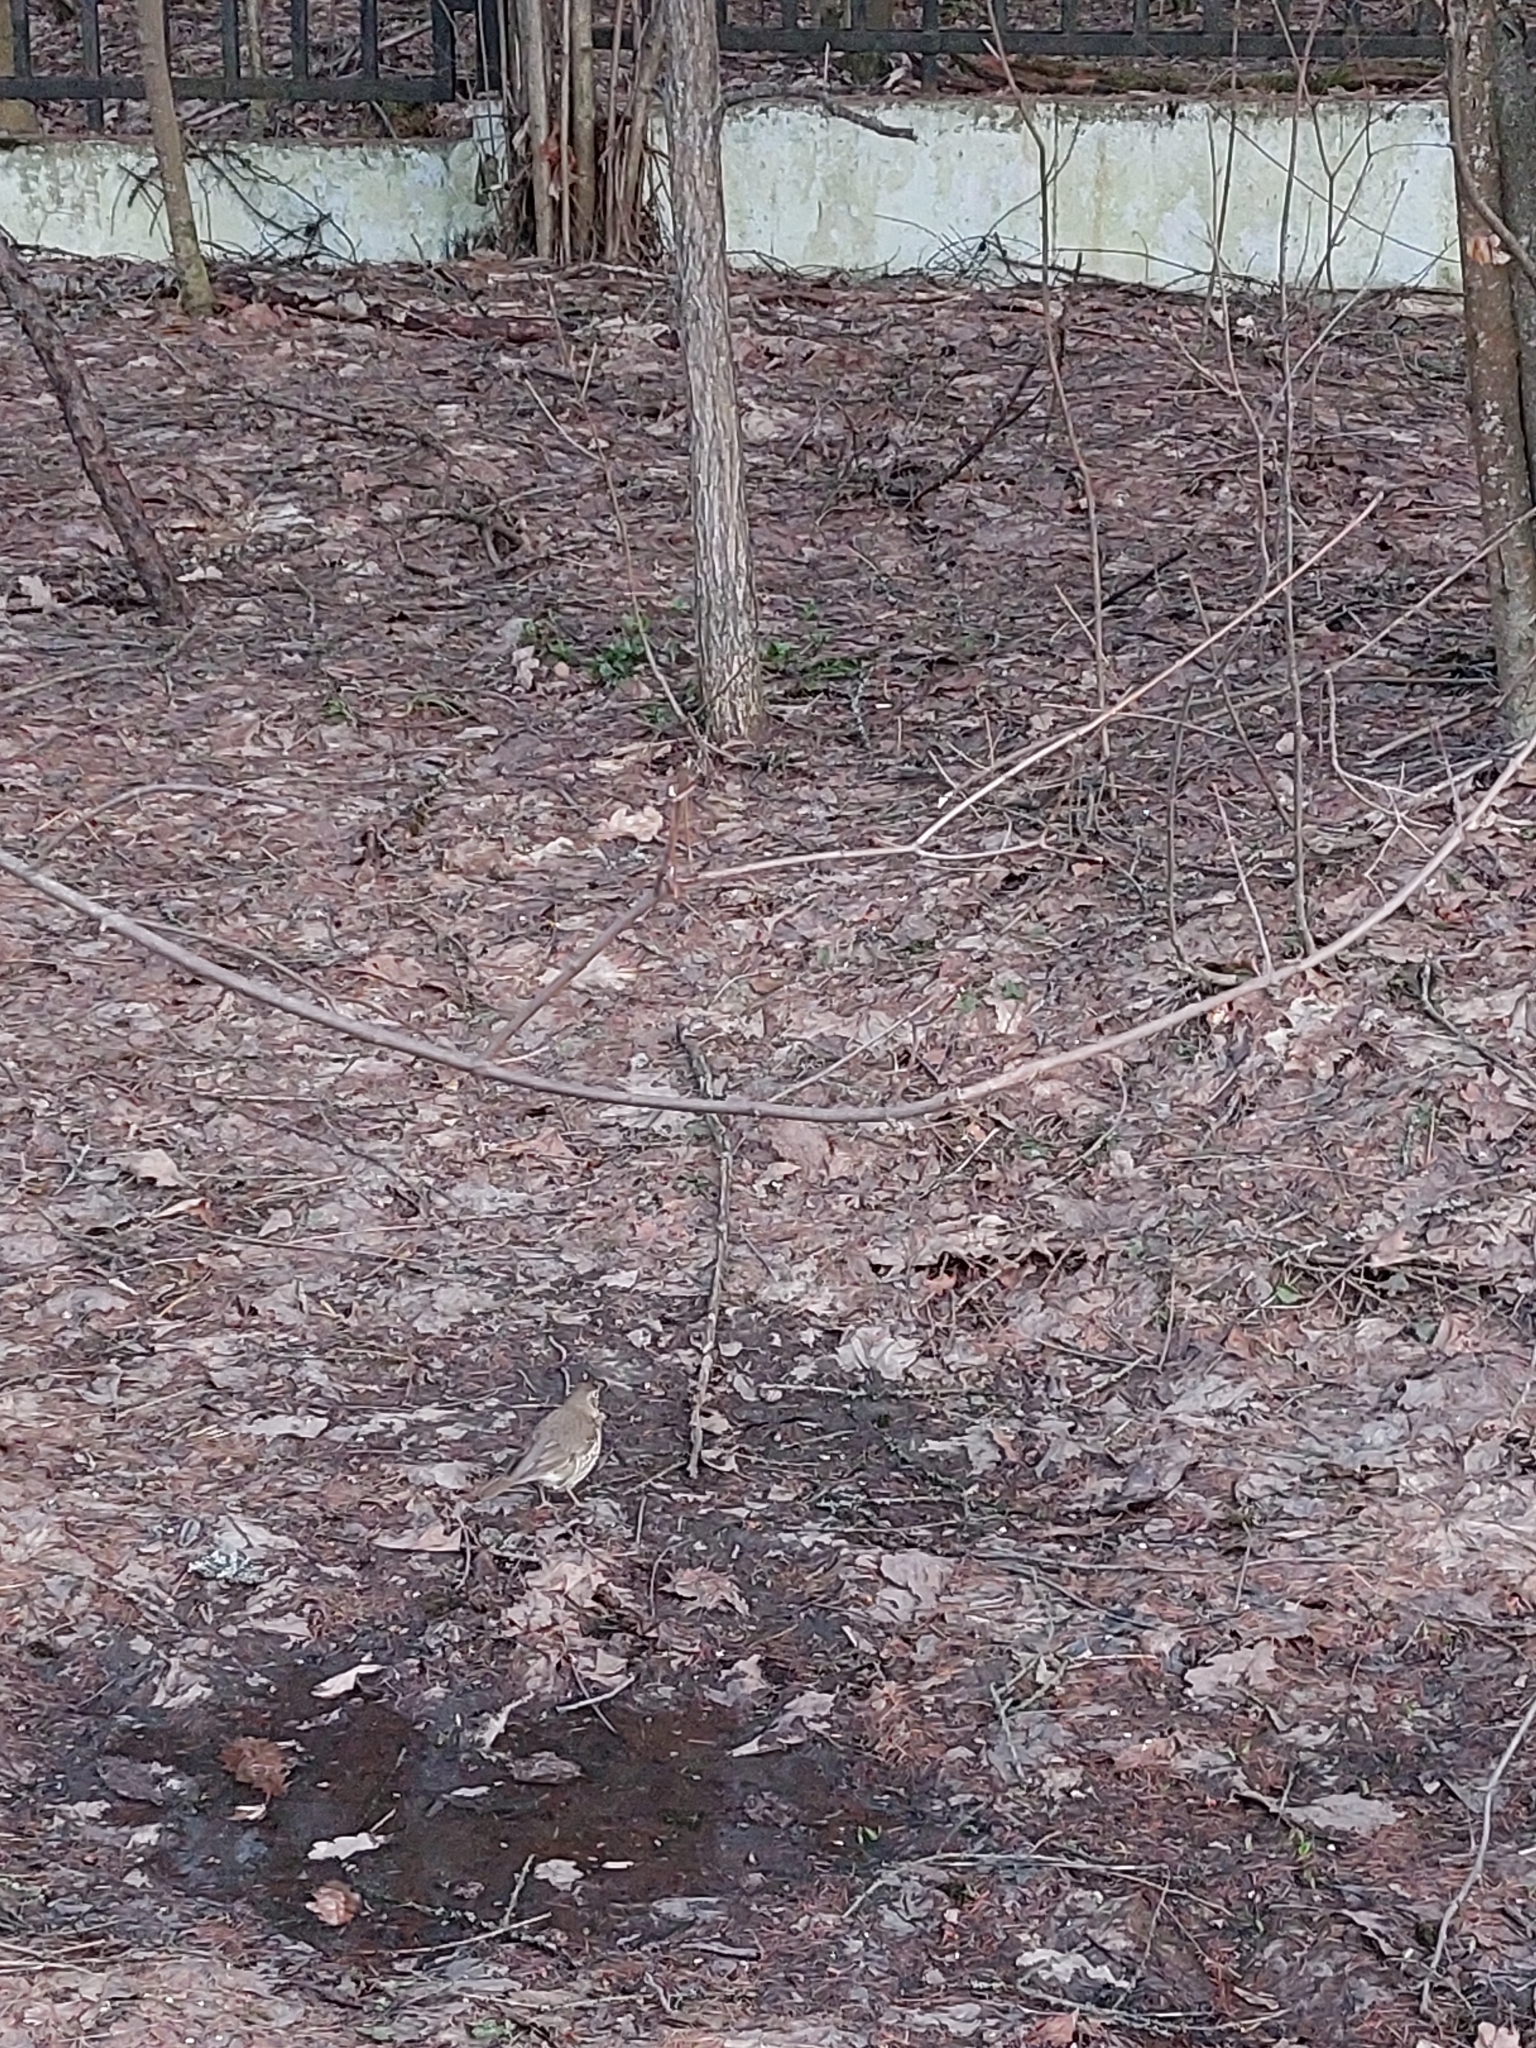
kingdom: Animalia
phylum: Chordata
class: Aves
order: Passeriformes
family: Turdidae
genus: Turdus
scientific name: Turdus philomelos
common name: Song thrush
